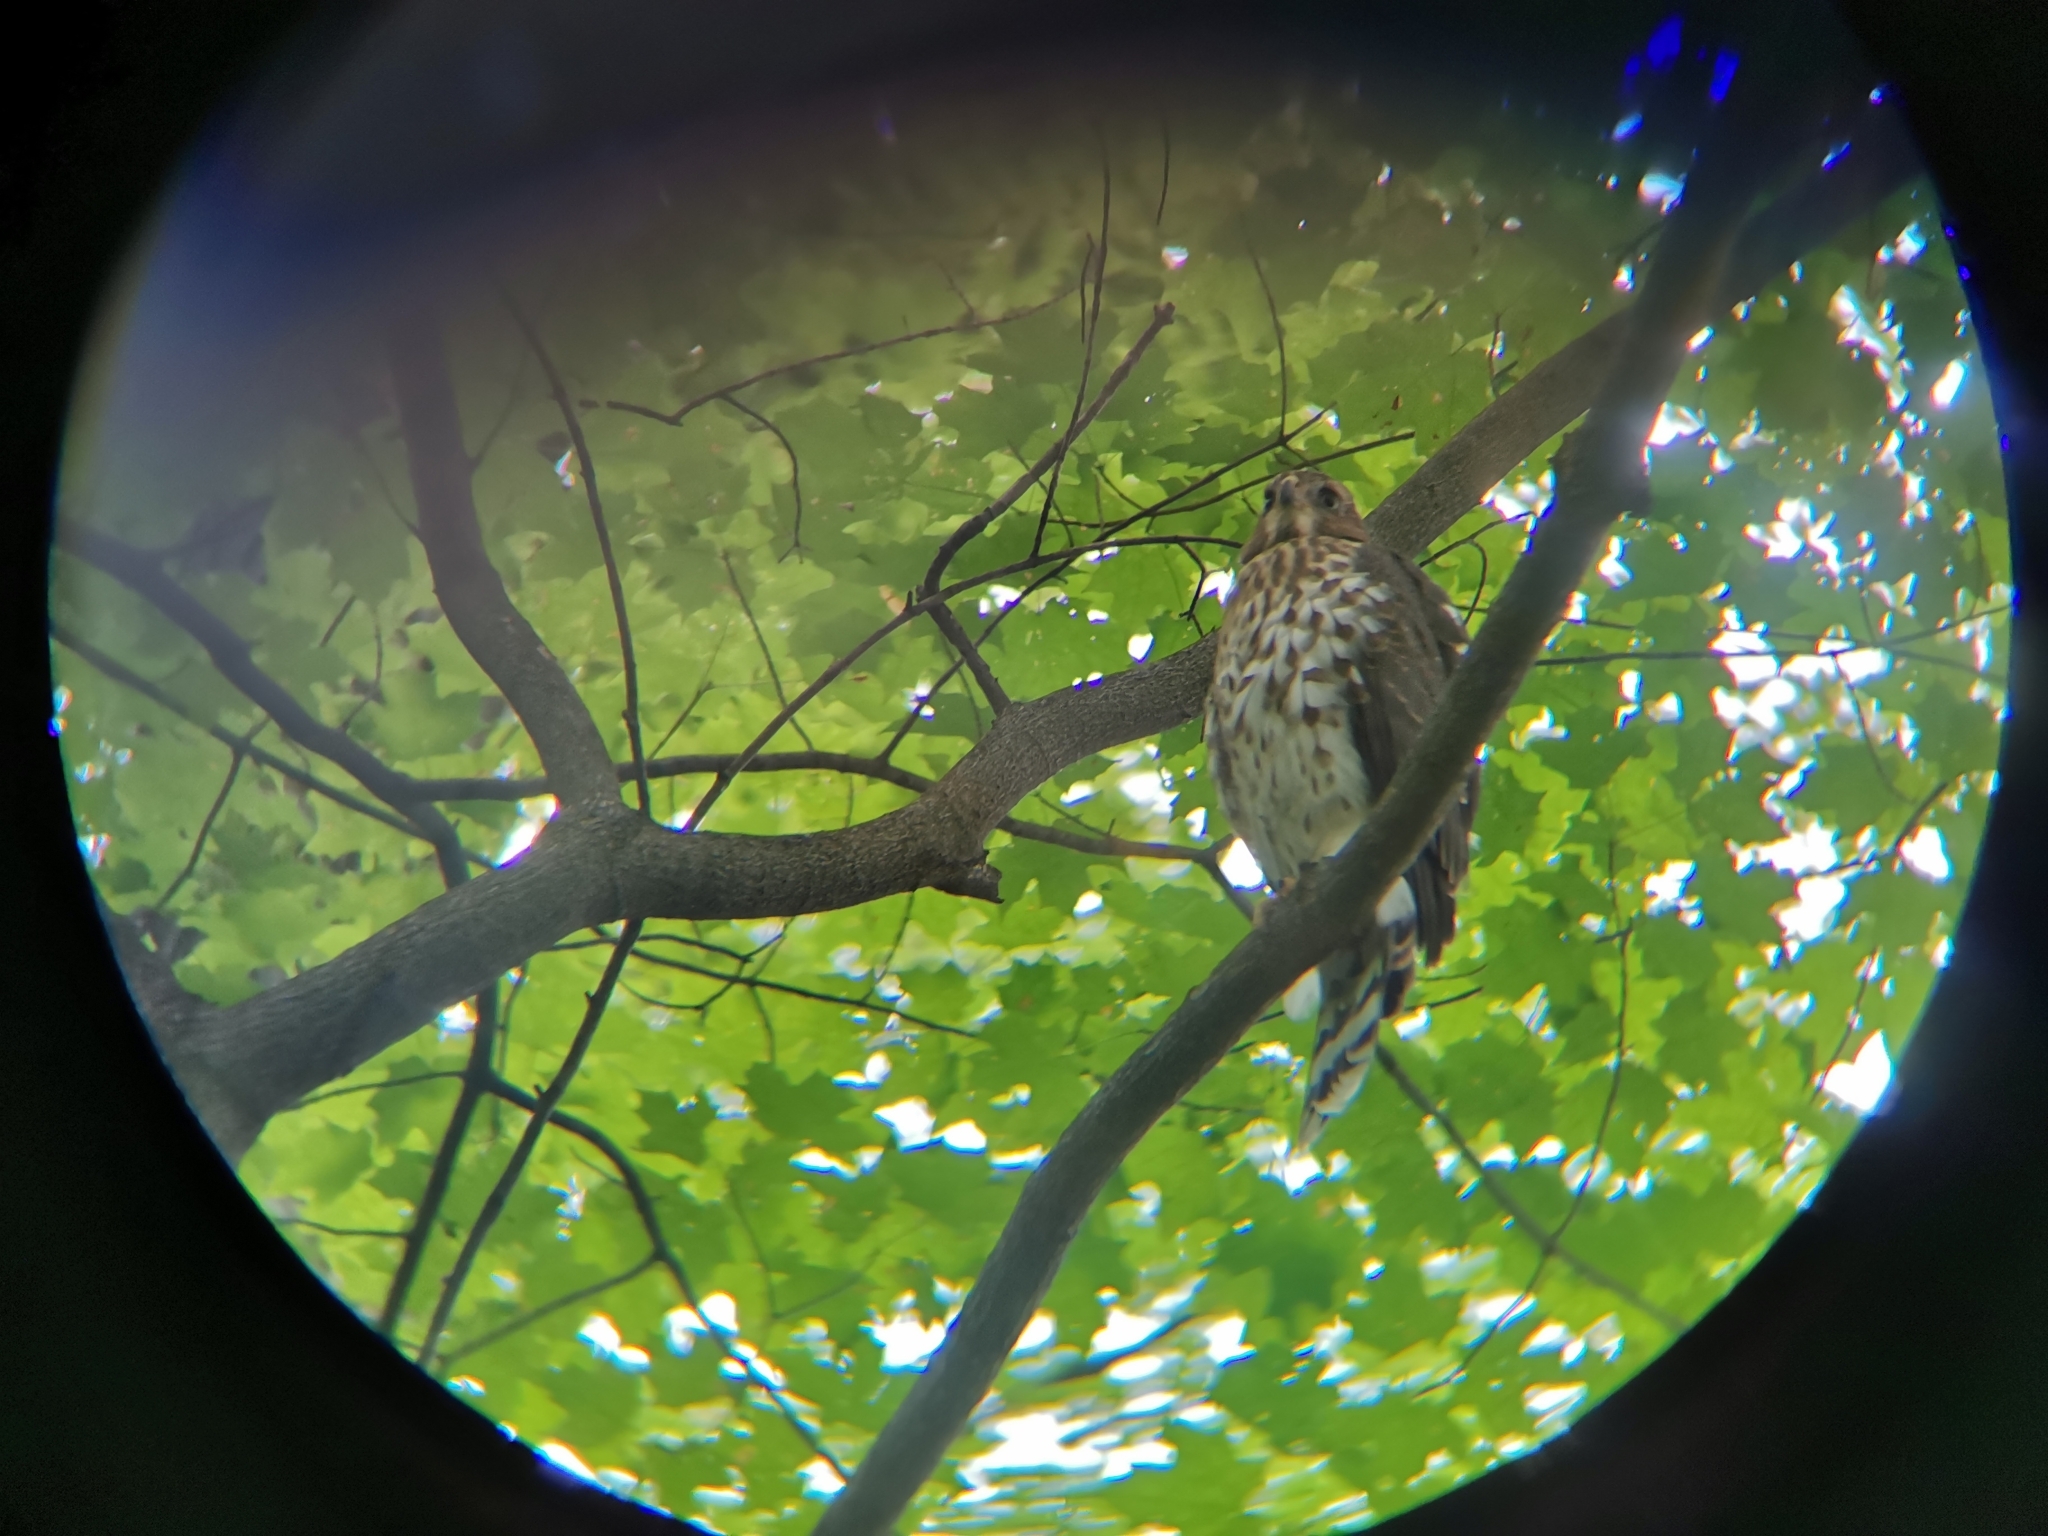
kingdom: Animalia
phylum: Chordata
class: Aves
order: Accipitriformes
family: Accipitridae
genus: Accipiter
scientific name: Accipiter cooperii
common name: Cooper's hawk
